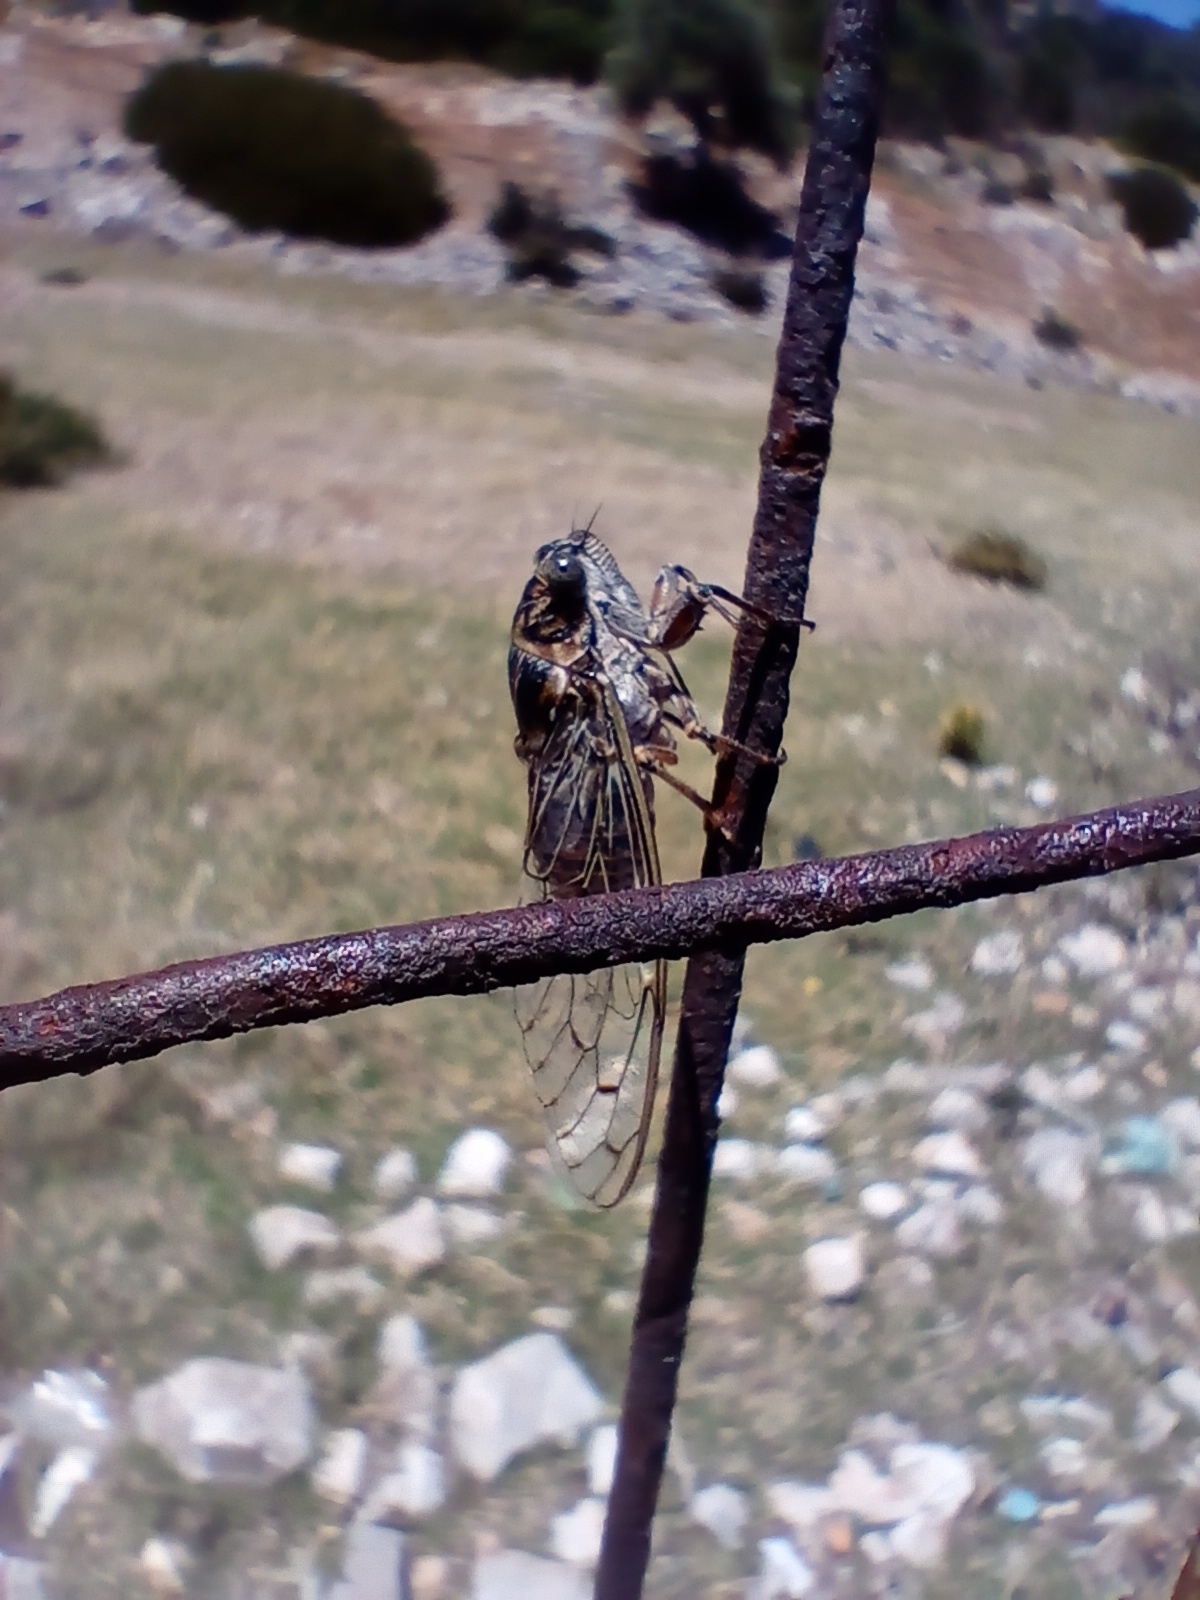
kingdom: Animalia
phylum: Arthropoda
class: Insecta
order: Hemiptera
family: Cicadidae
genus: Cicada
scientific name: Cicada orni
